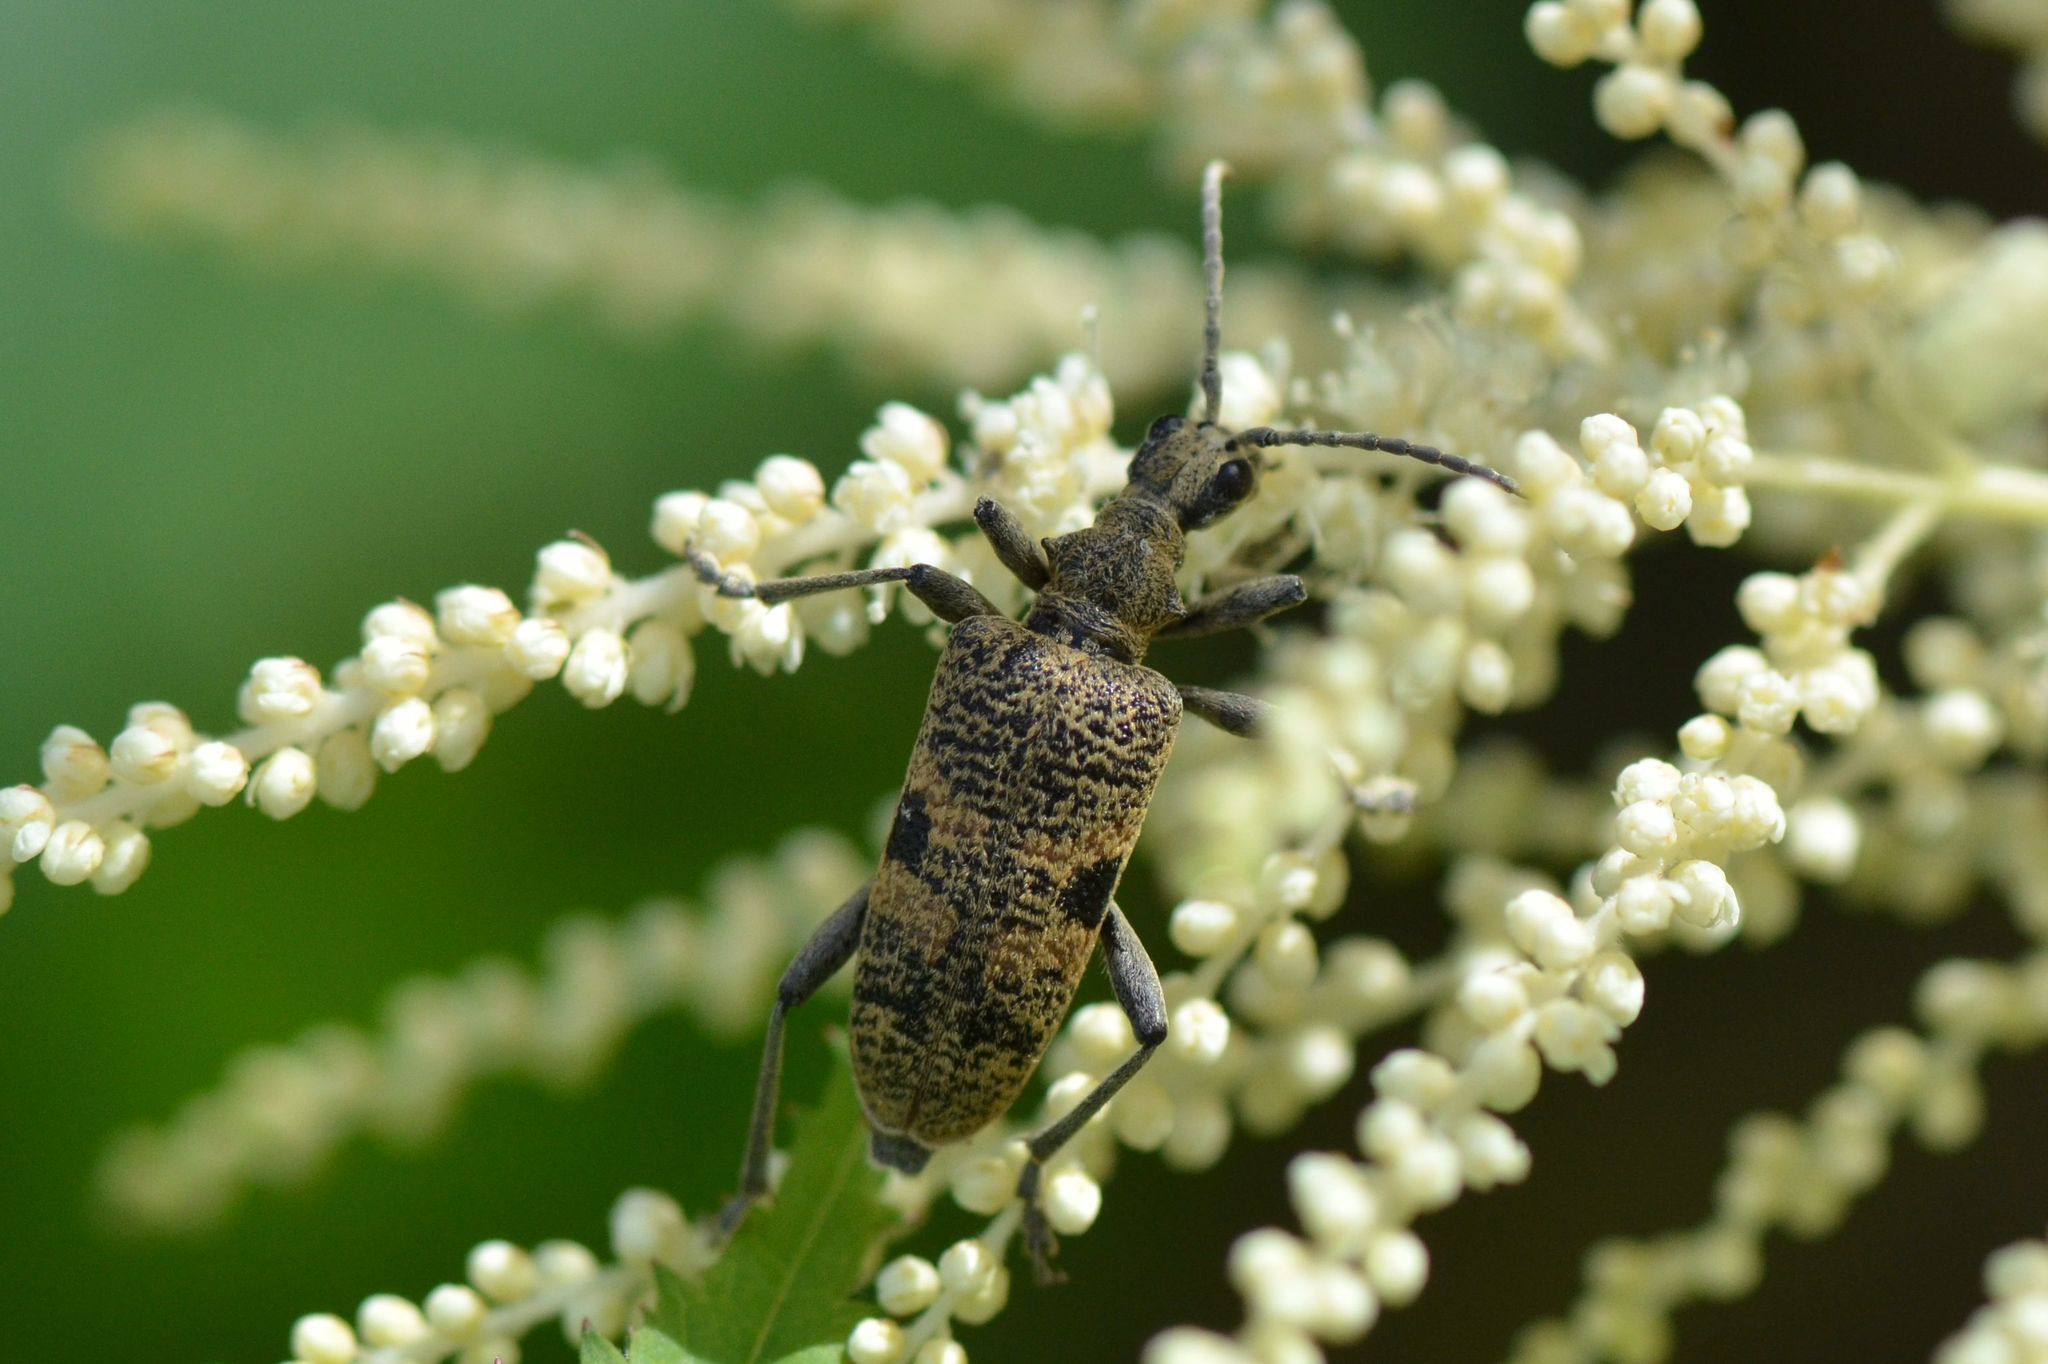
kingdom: Animalia
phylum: Arthropoda
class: Insecta
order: Coleoptera
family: Cerambycidae
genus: Rhagium
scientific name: Rhagium mordax
